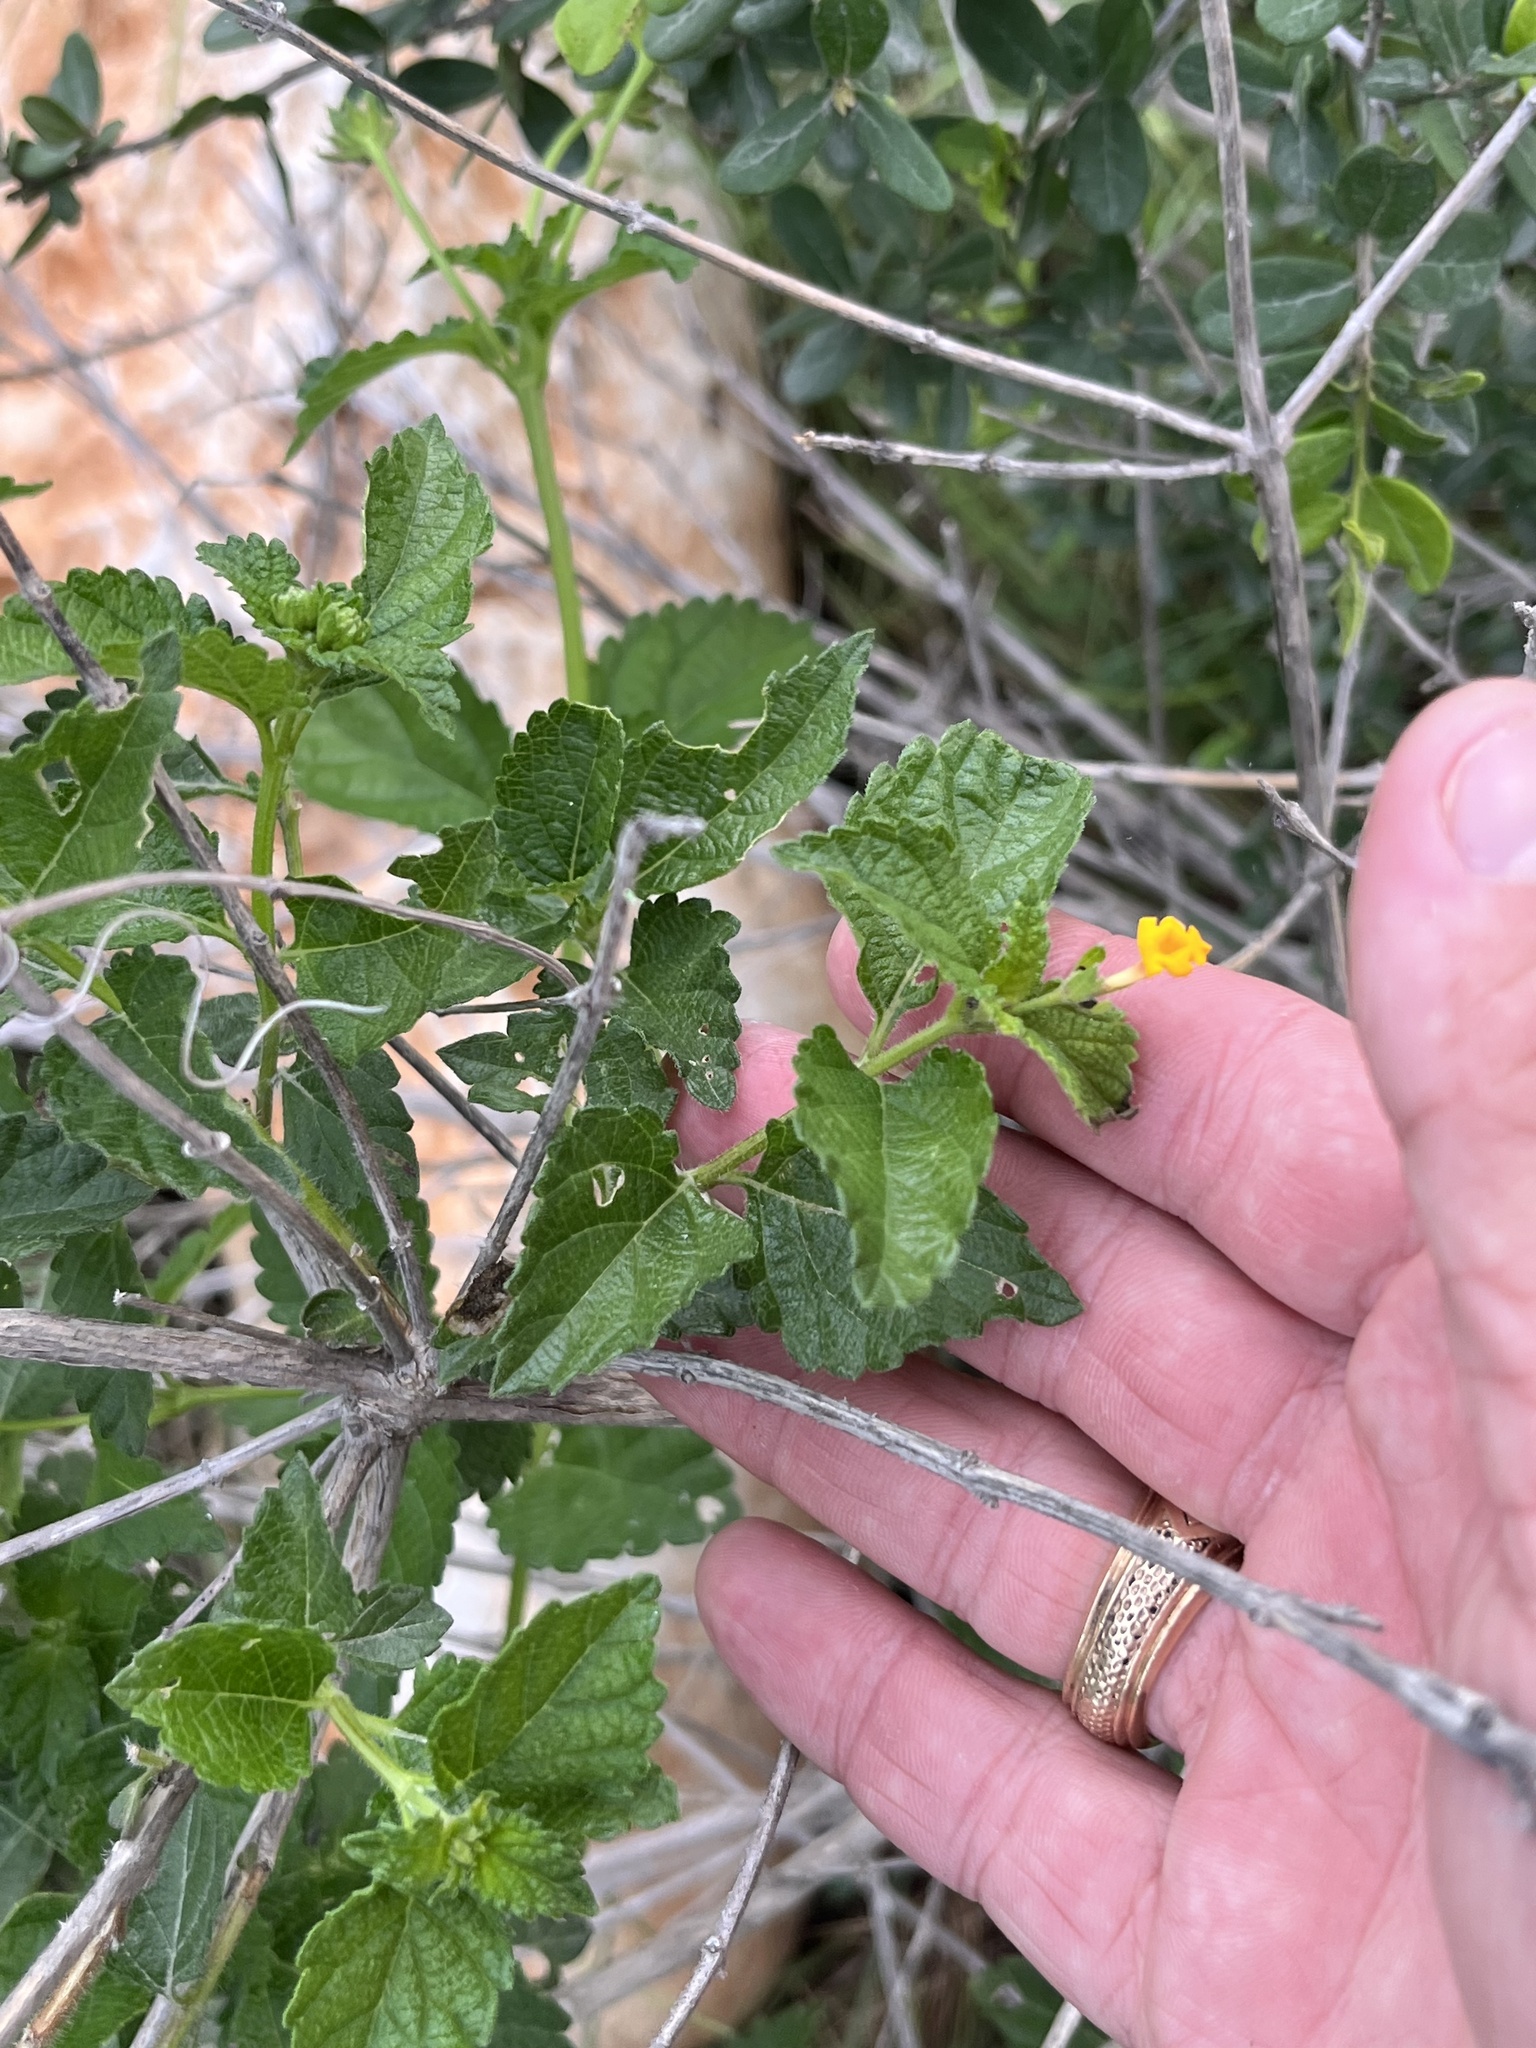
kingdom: Plantae
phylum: Tracheophyta
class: Magnoliopsida
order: Lamiales
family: Verbenaceae
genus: Lantana
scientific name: Lantana urticoides
